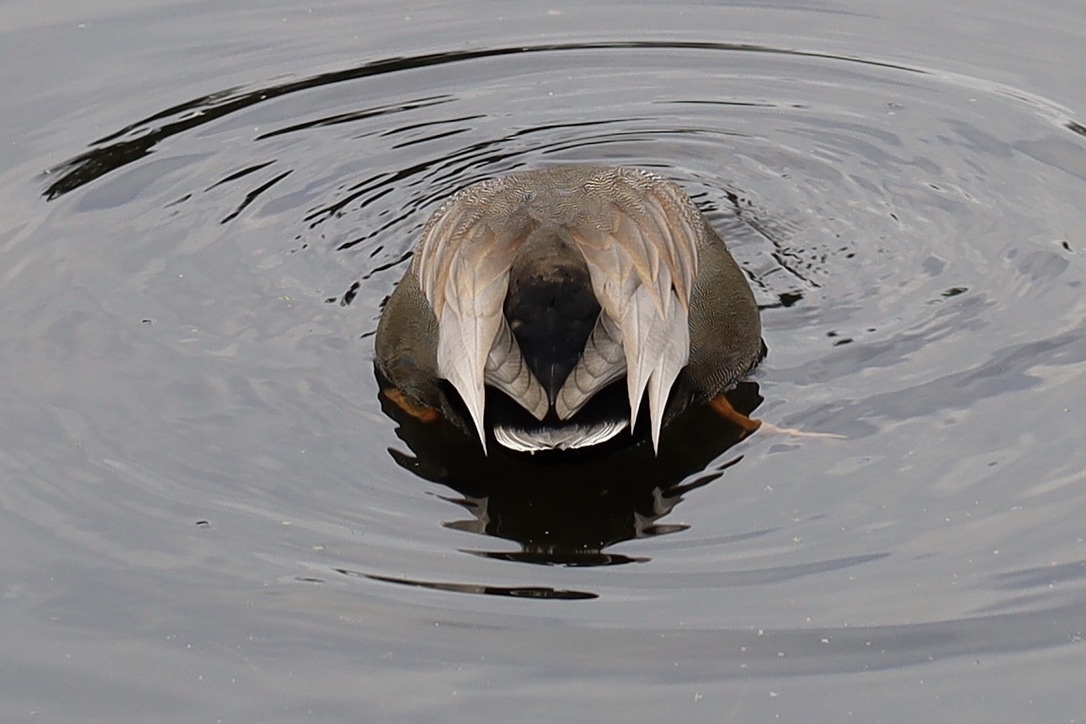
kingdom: Animalia
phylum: Chordata
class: Aves
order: Anseriformes
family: Anatidae
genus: Mareca
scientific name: Mareca strepera
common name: Gadwall
